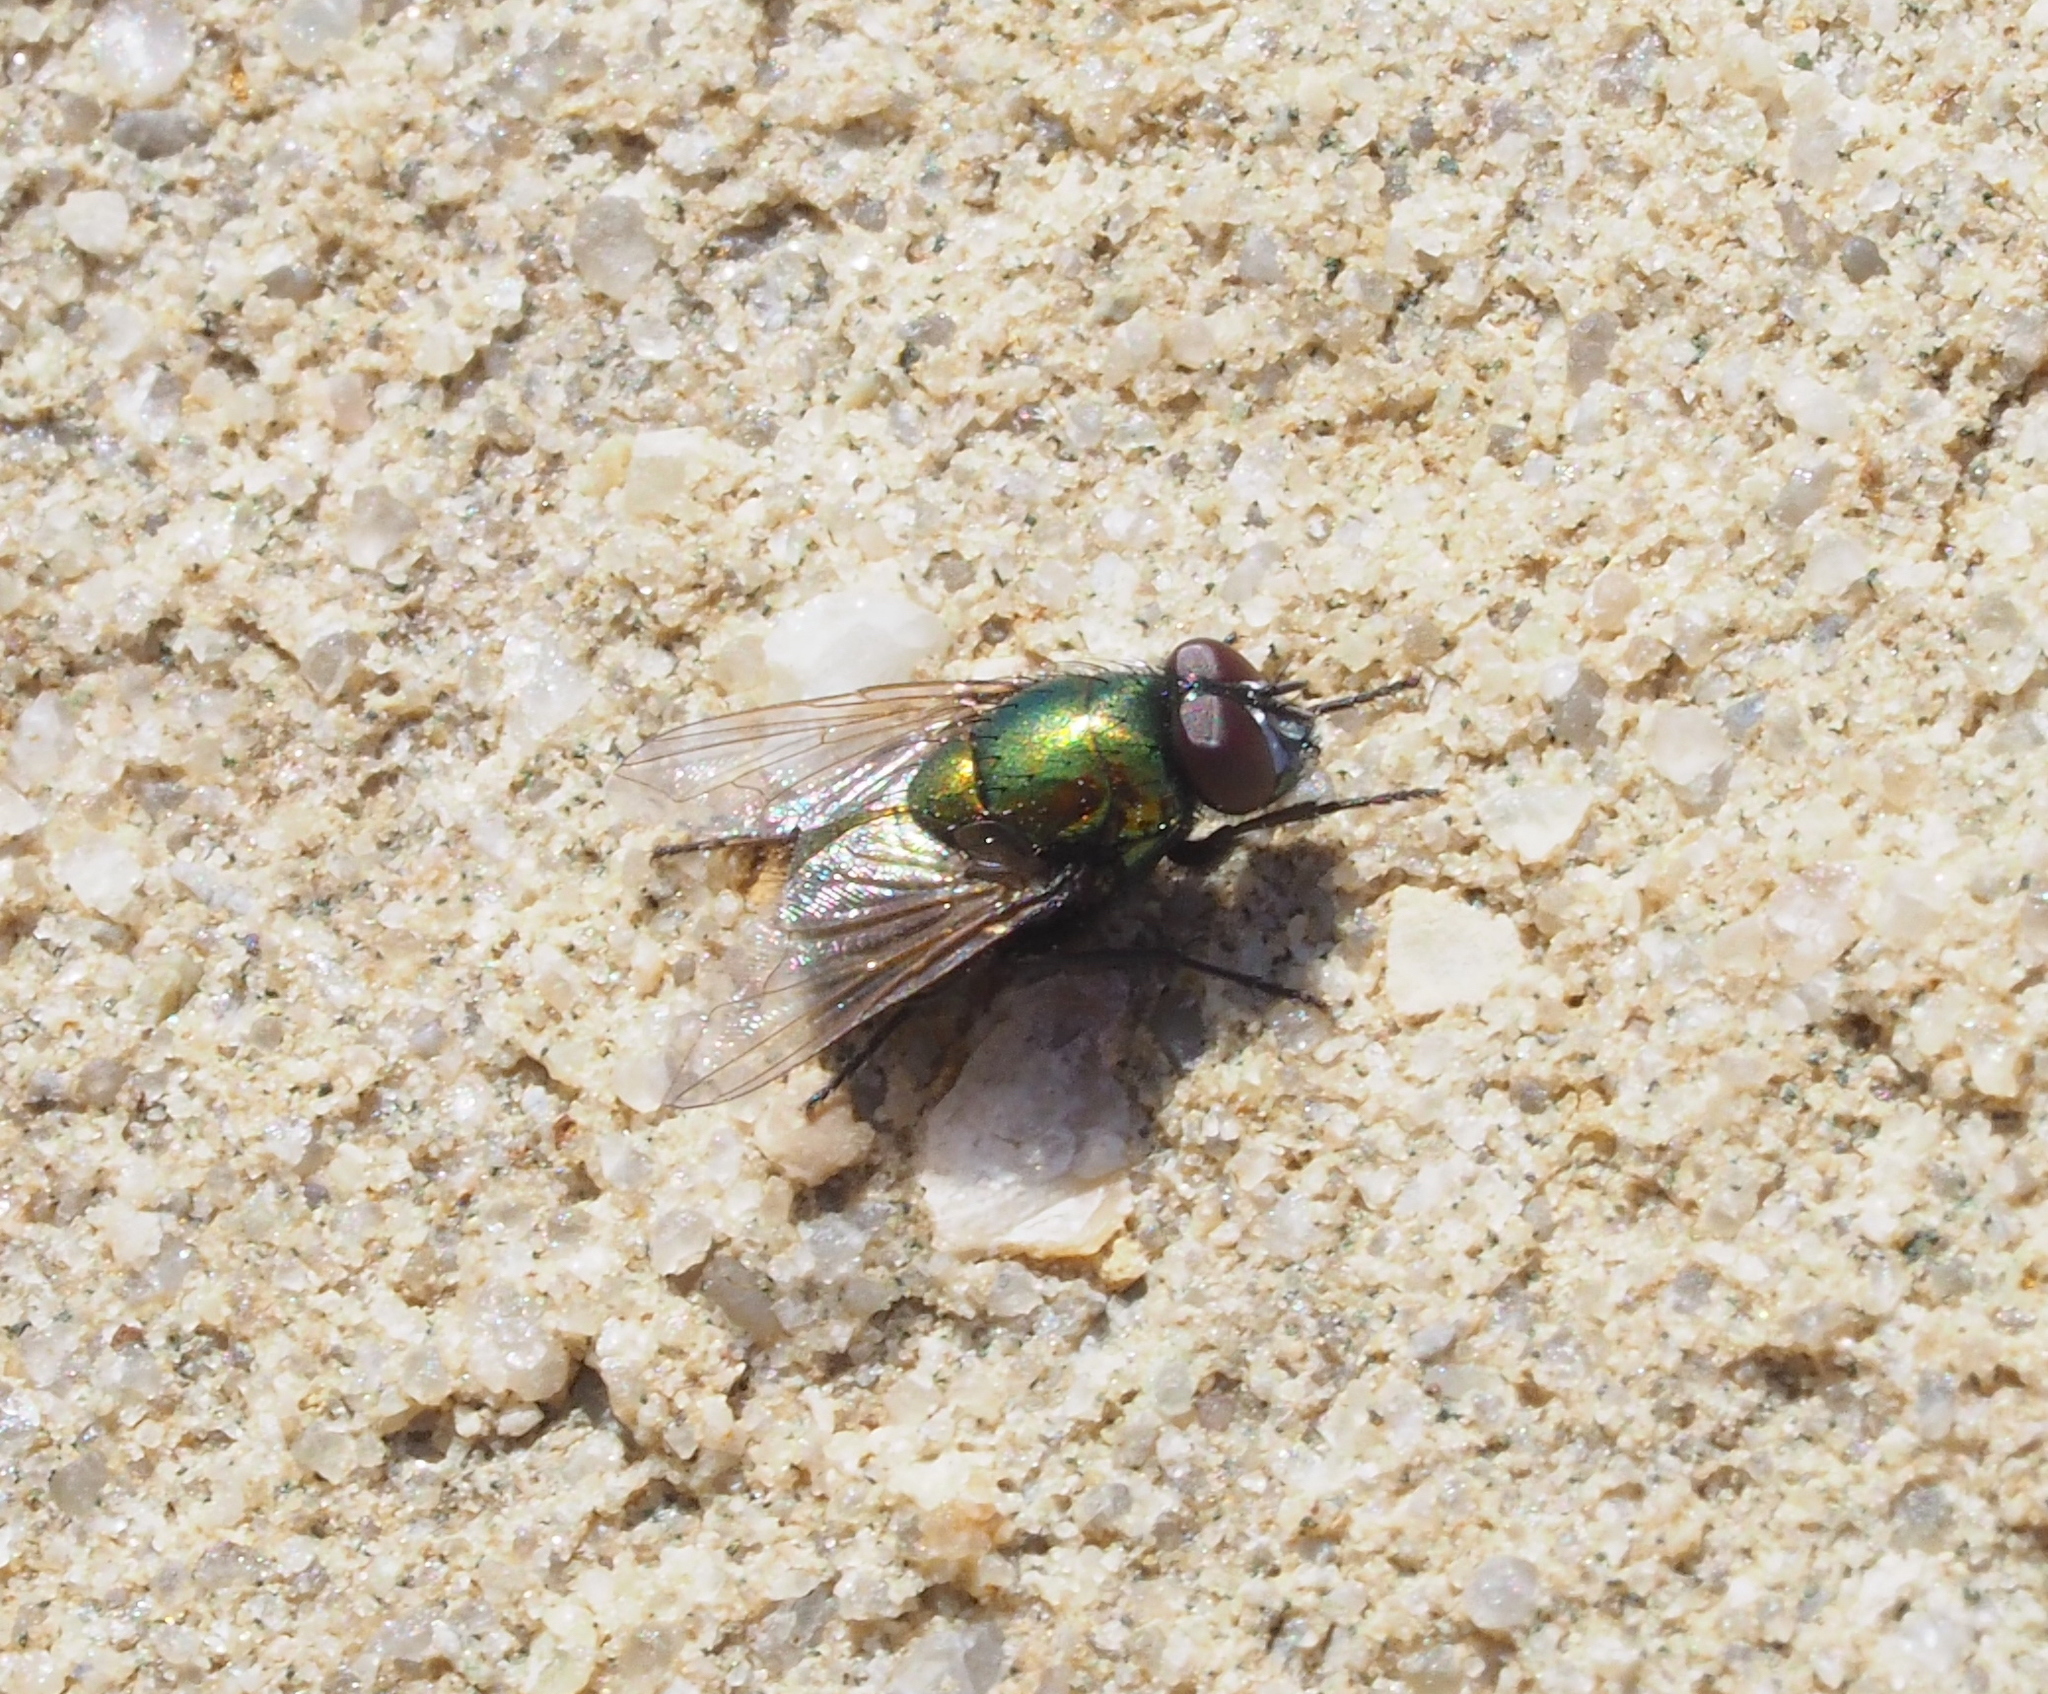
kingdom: Animalia
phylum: Arthropoda
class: Insecta
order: Diptera
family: Muscidae
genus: Neomyia
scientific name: Neomyia cornicina
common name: House fly
